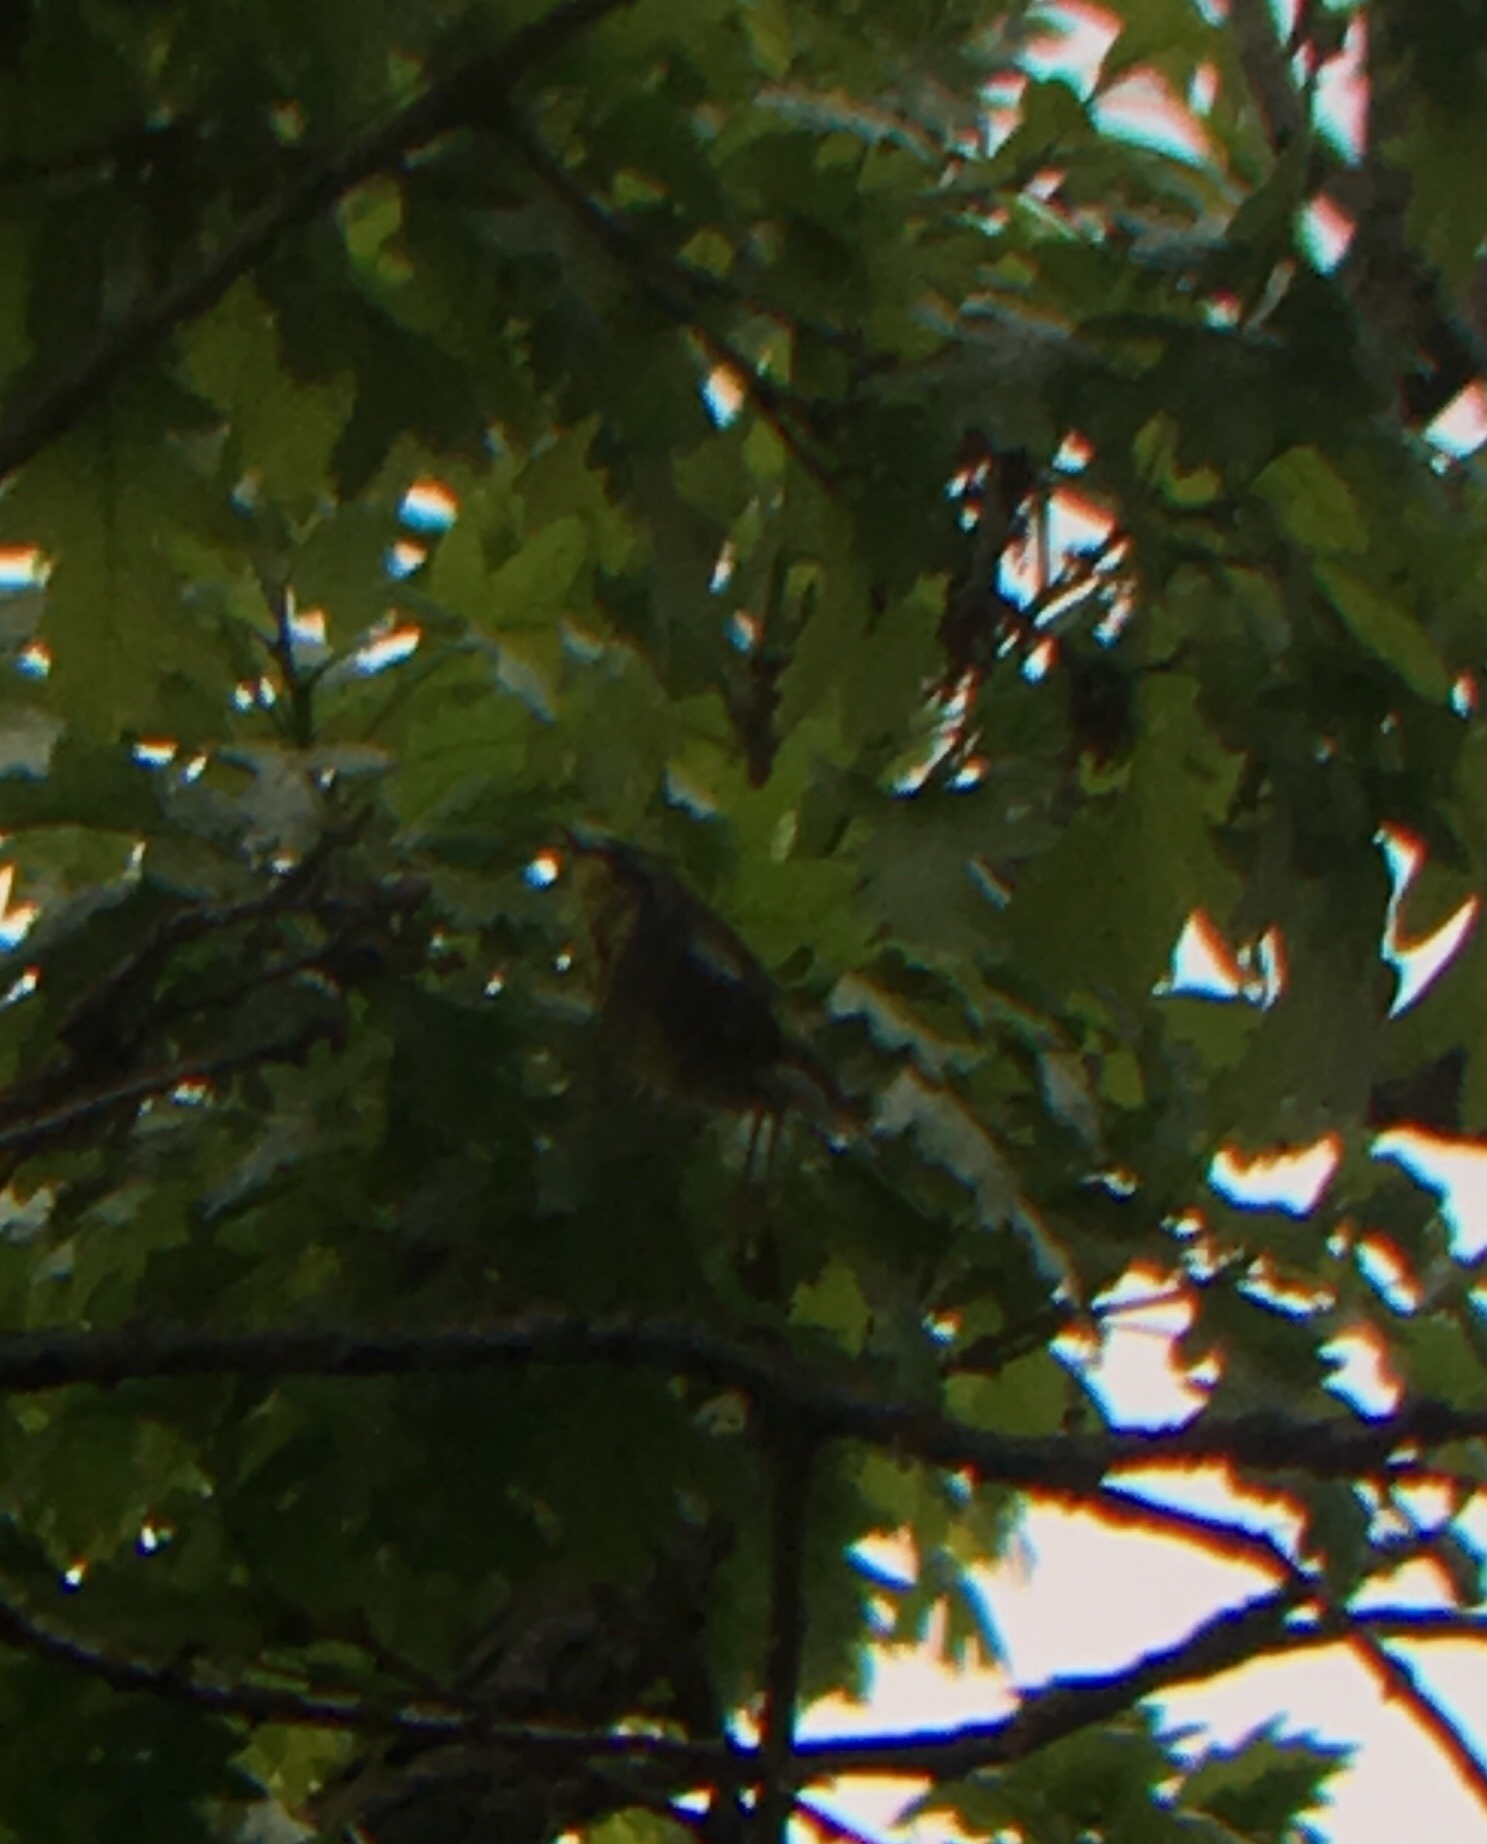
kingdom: Animalia
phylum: Chordata
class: Aves
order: Passeriformes
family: Parulidae
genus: Setophaga
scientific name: Setophaga magnolia
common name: Magnolia warbler
